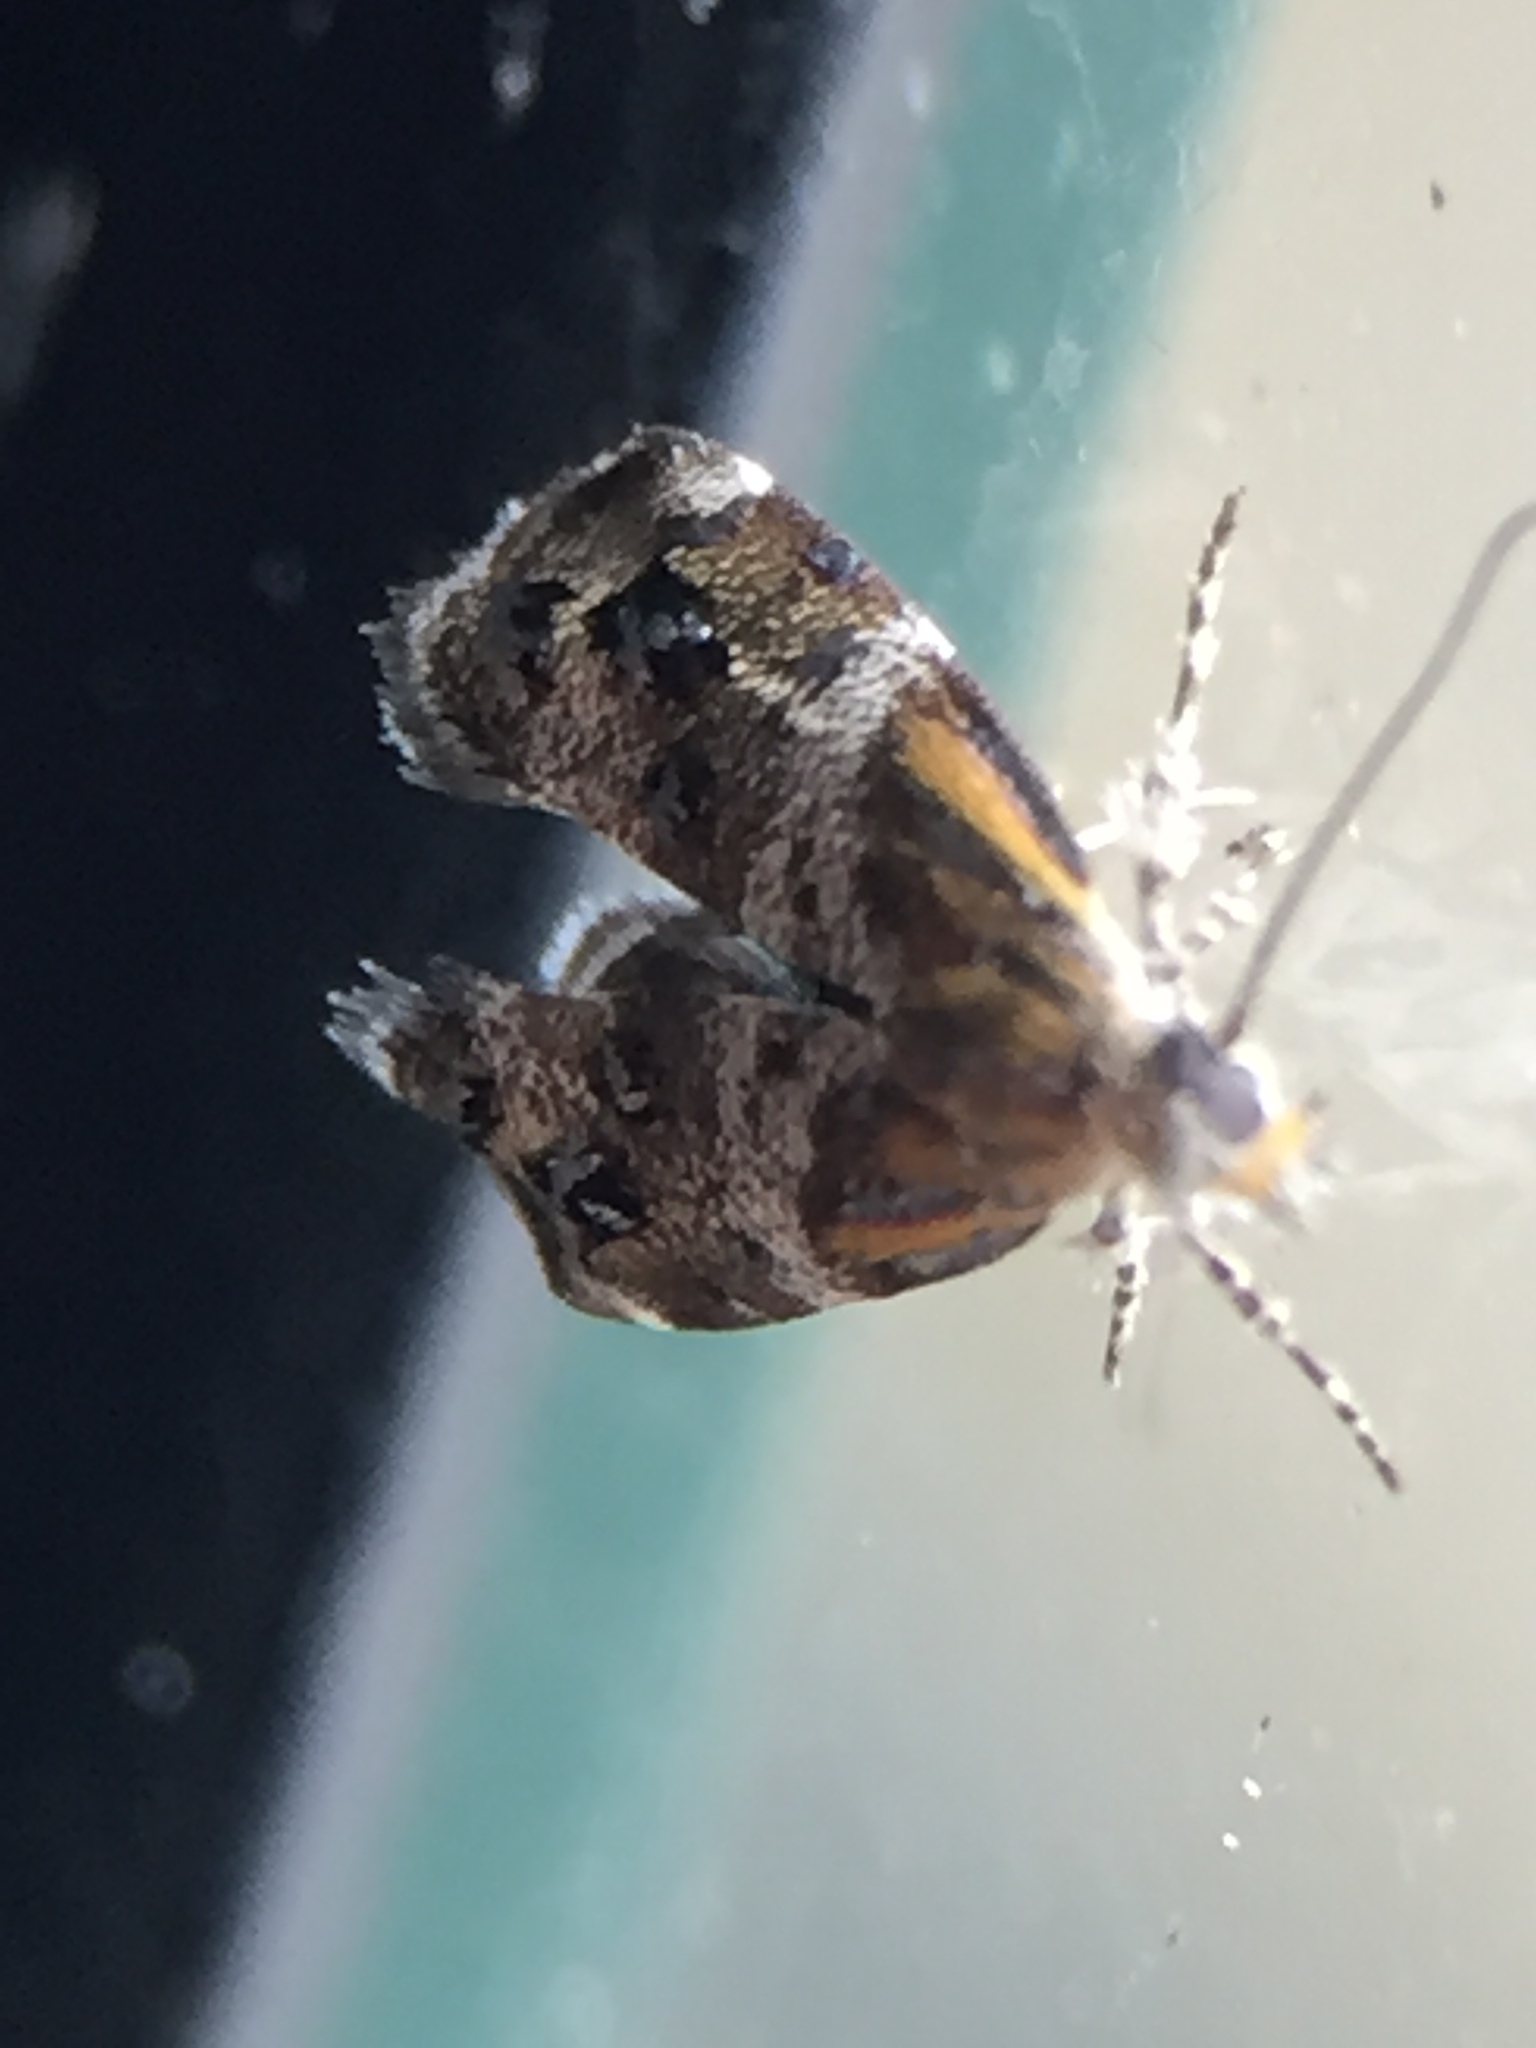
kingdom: Animalia
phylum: Arthropoda
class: Insecta
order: Lepidoptera
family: Choreutidae
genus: Tebenna
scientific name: Tebenna micalis
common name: Vagrant twitcher
